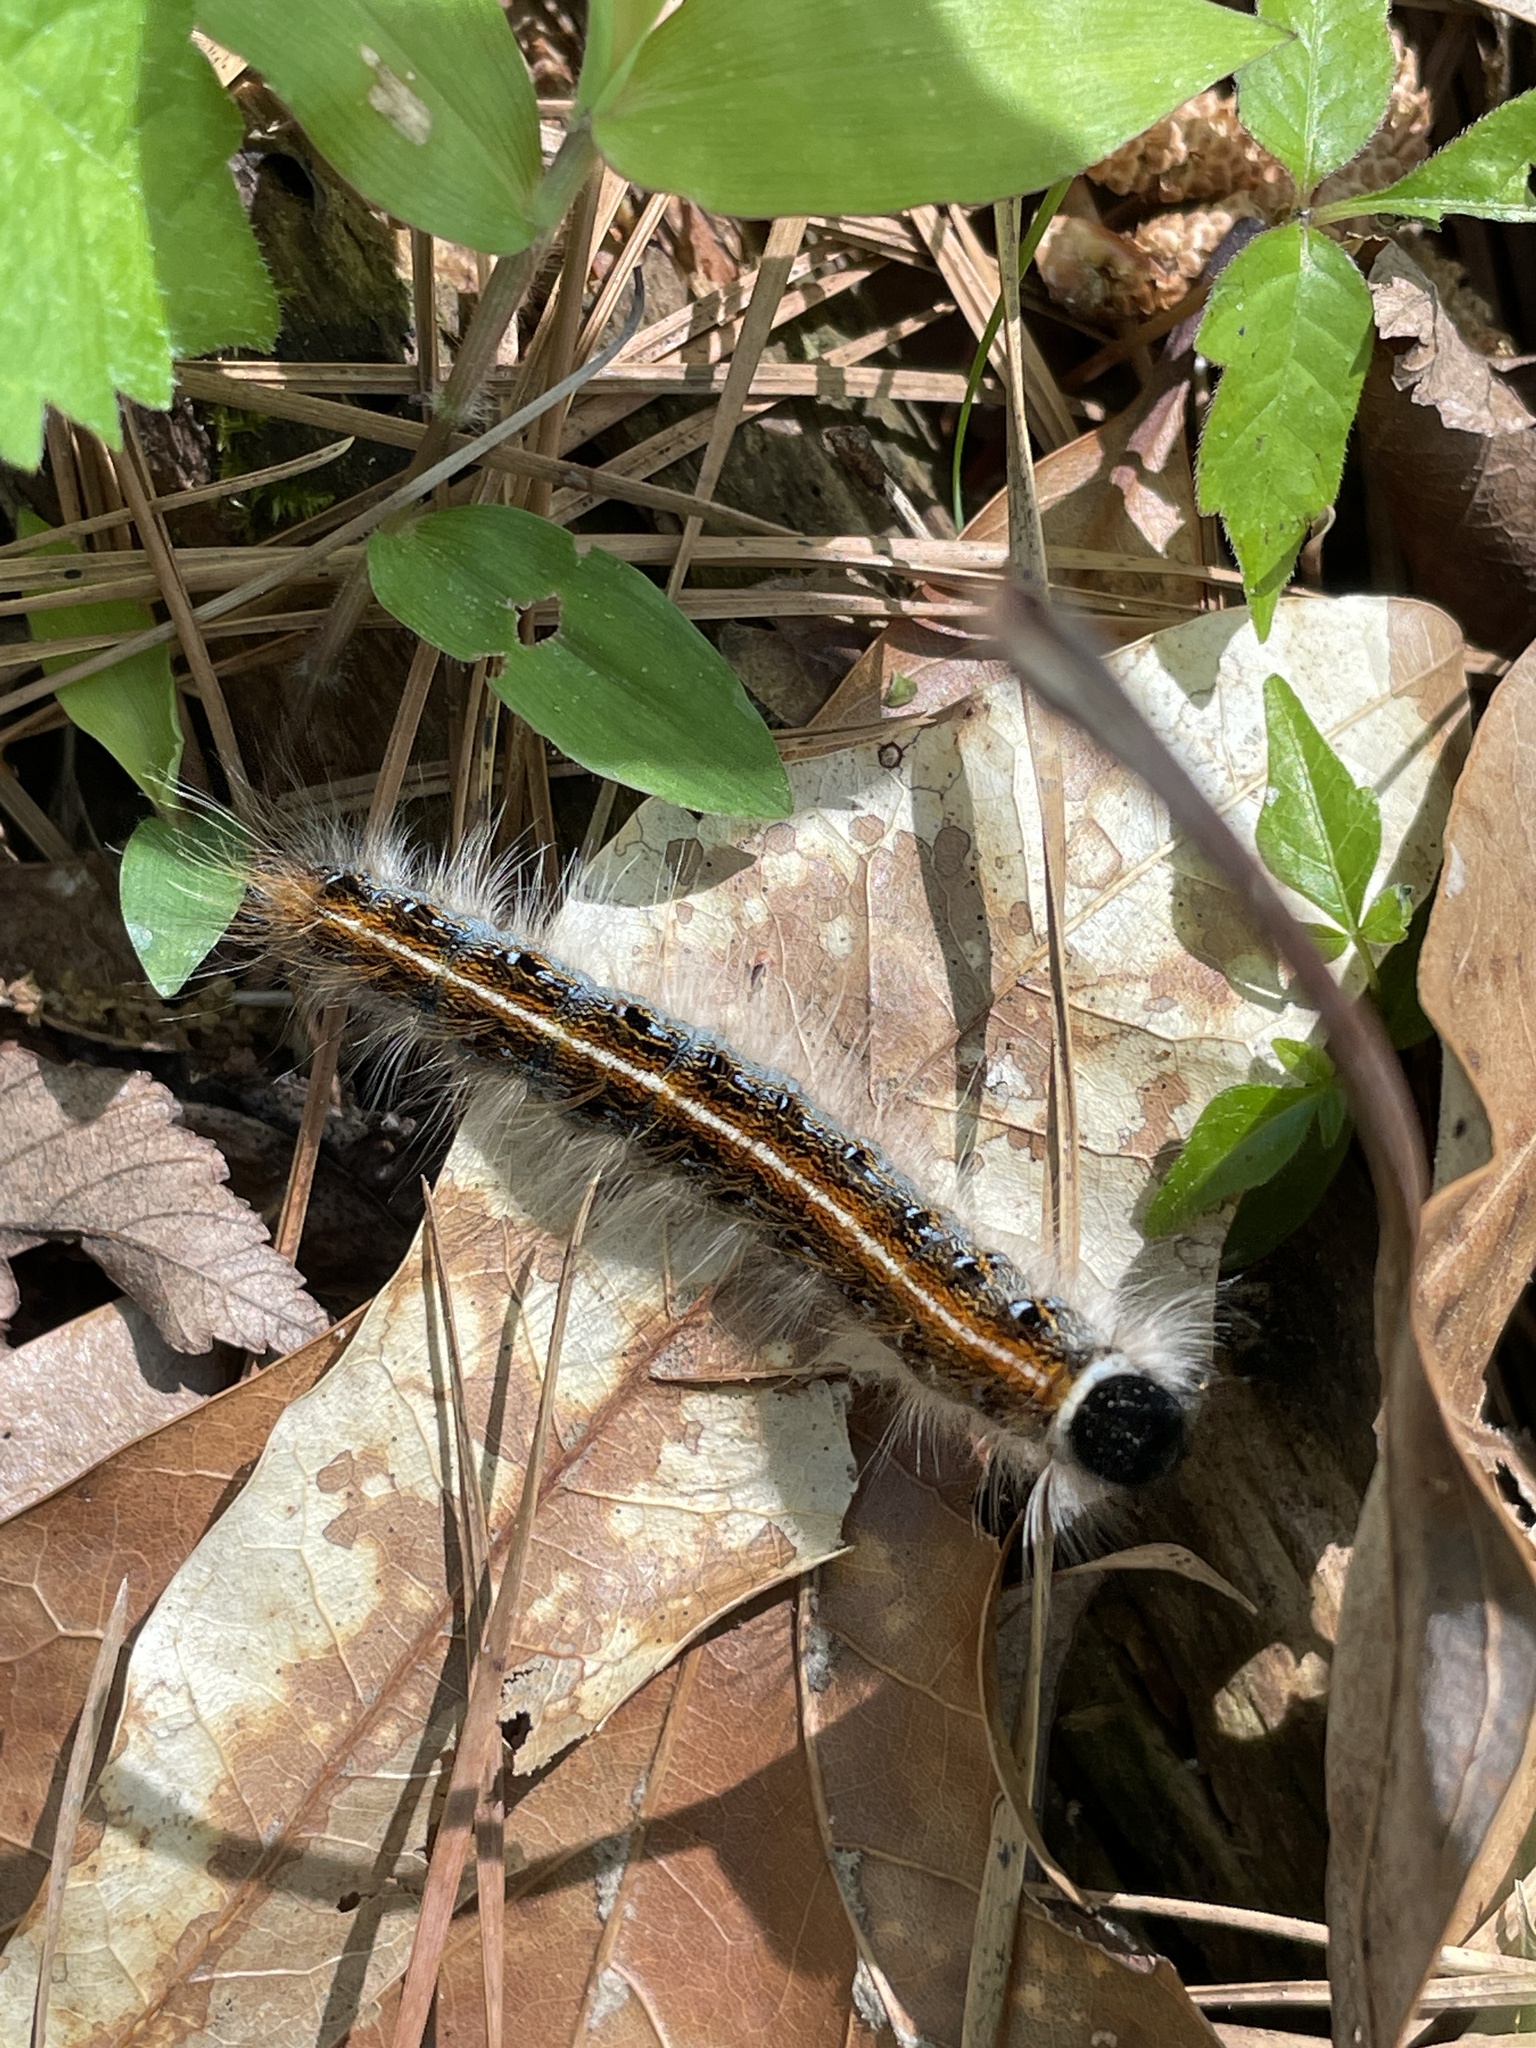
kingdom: Animalia
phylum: Arthropoda
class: Insecta
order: Lepidoptera
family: Lasiocampidae
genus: Malacosoma
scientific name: Malacosoma americana
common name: Eastern tent caterpillar moth
